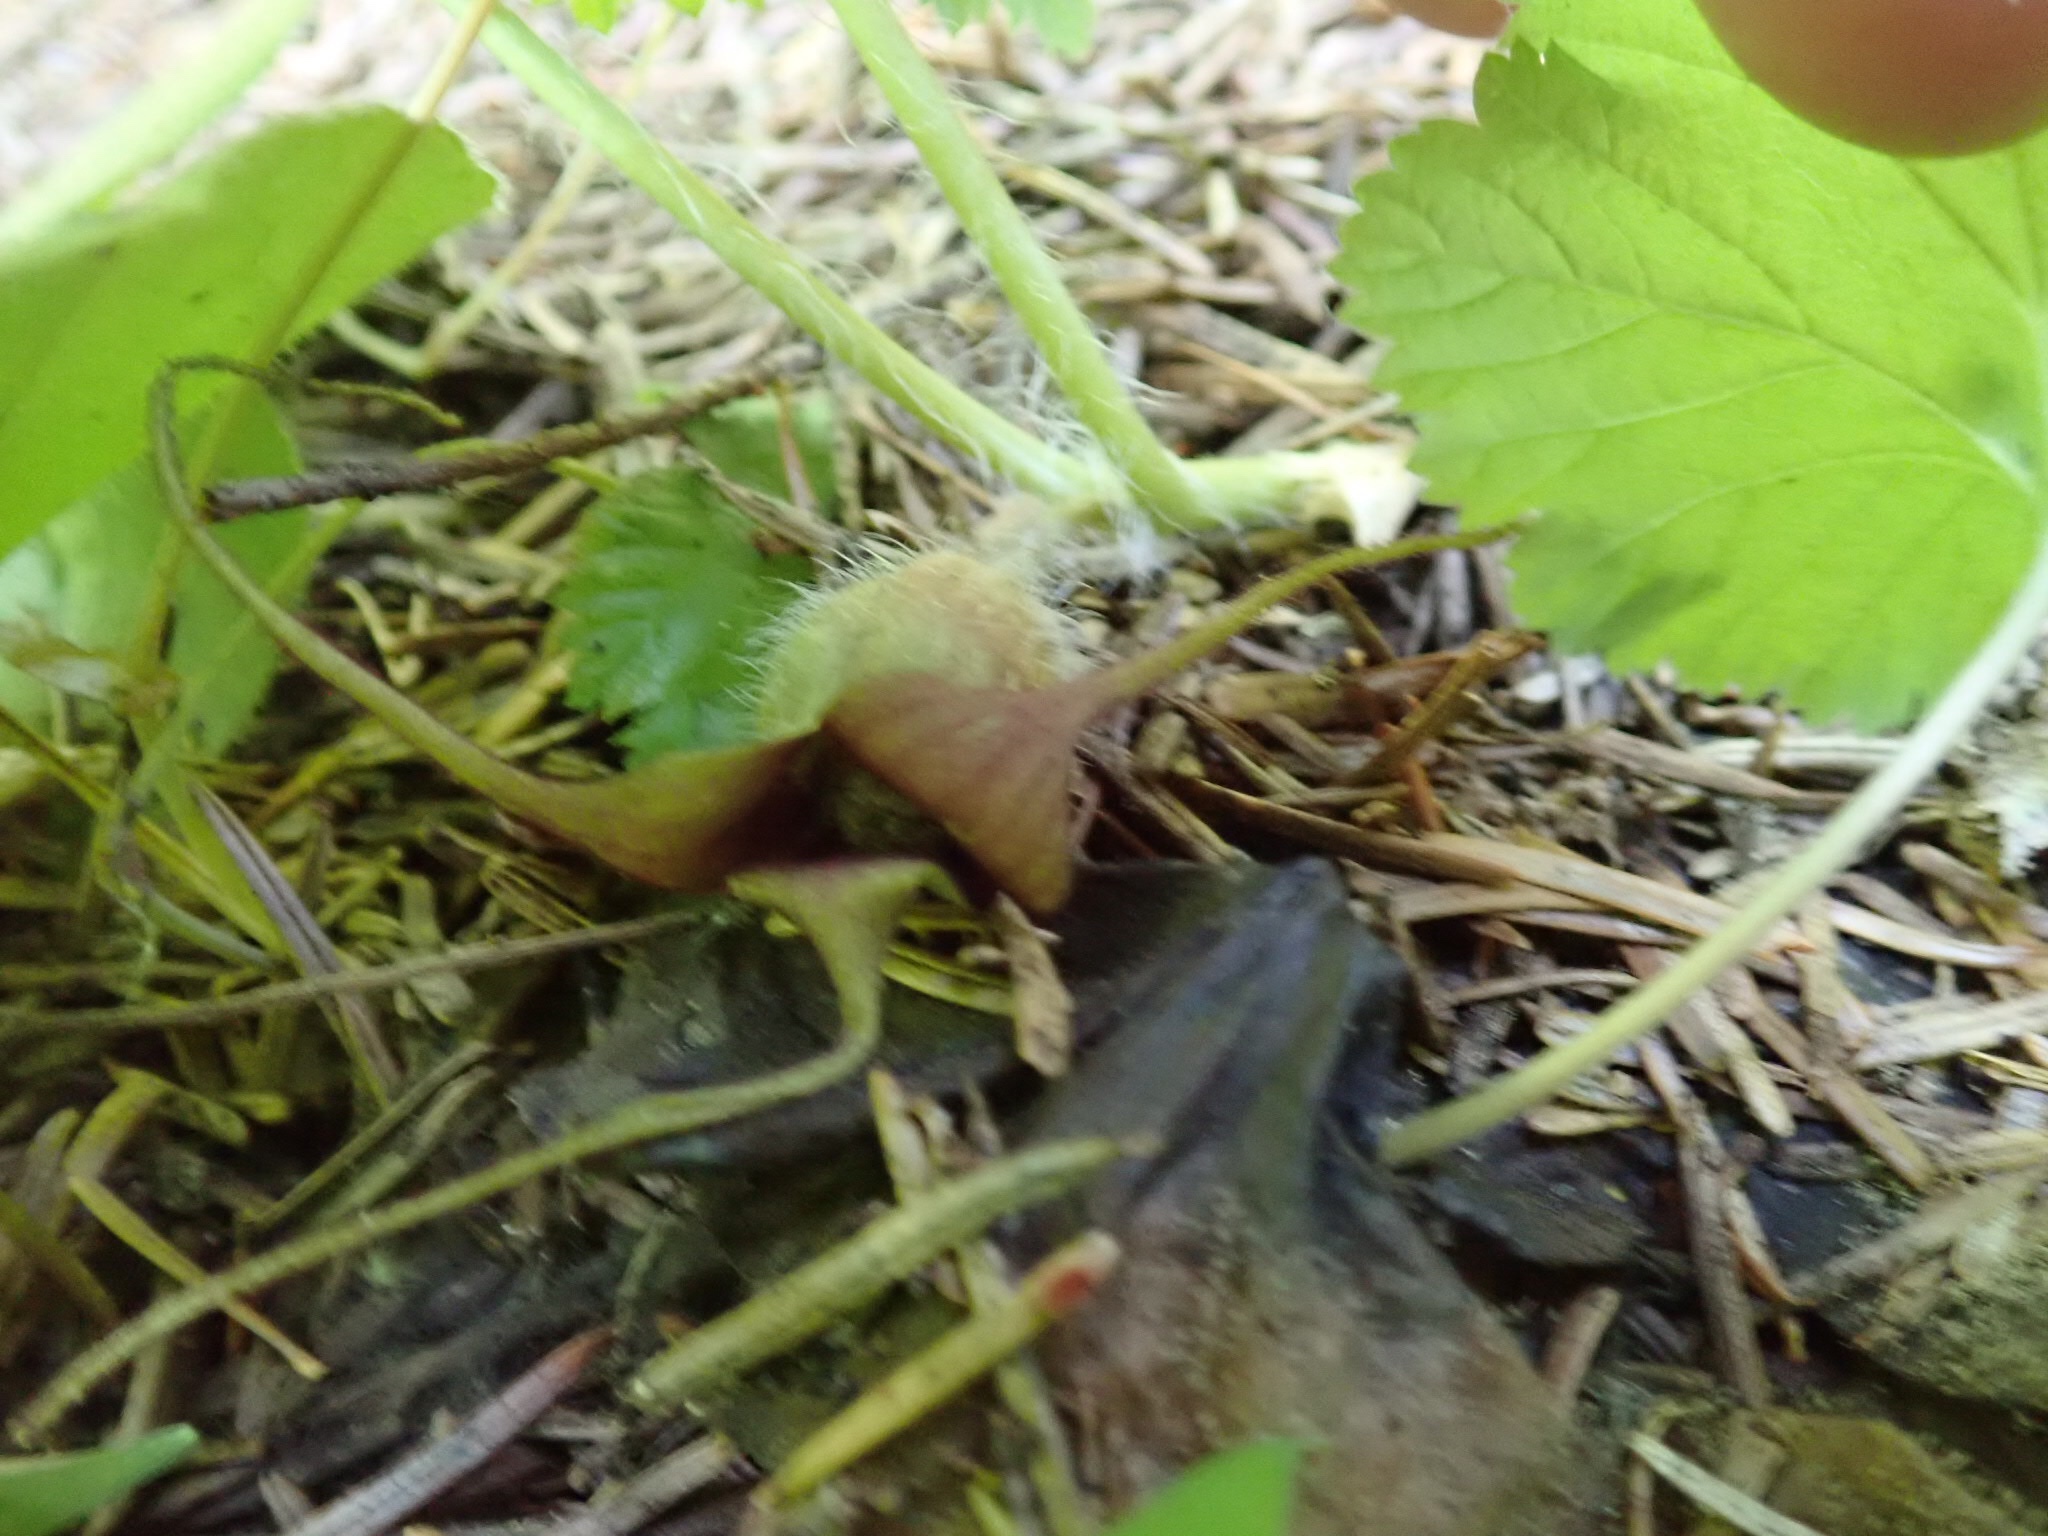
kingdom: Plantae
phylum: Tracheophyta
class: Magnoliopsida
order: Piperales
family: Aristolochiaceae
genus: Asarum
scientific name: Asarum caudatum
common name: Wild ginger
